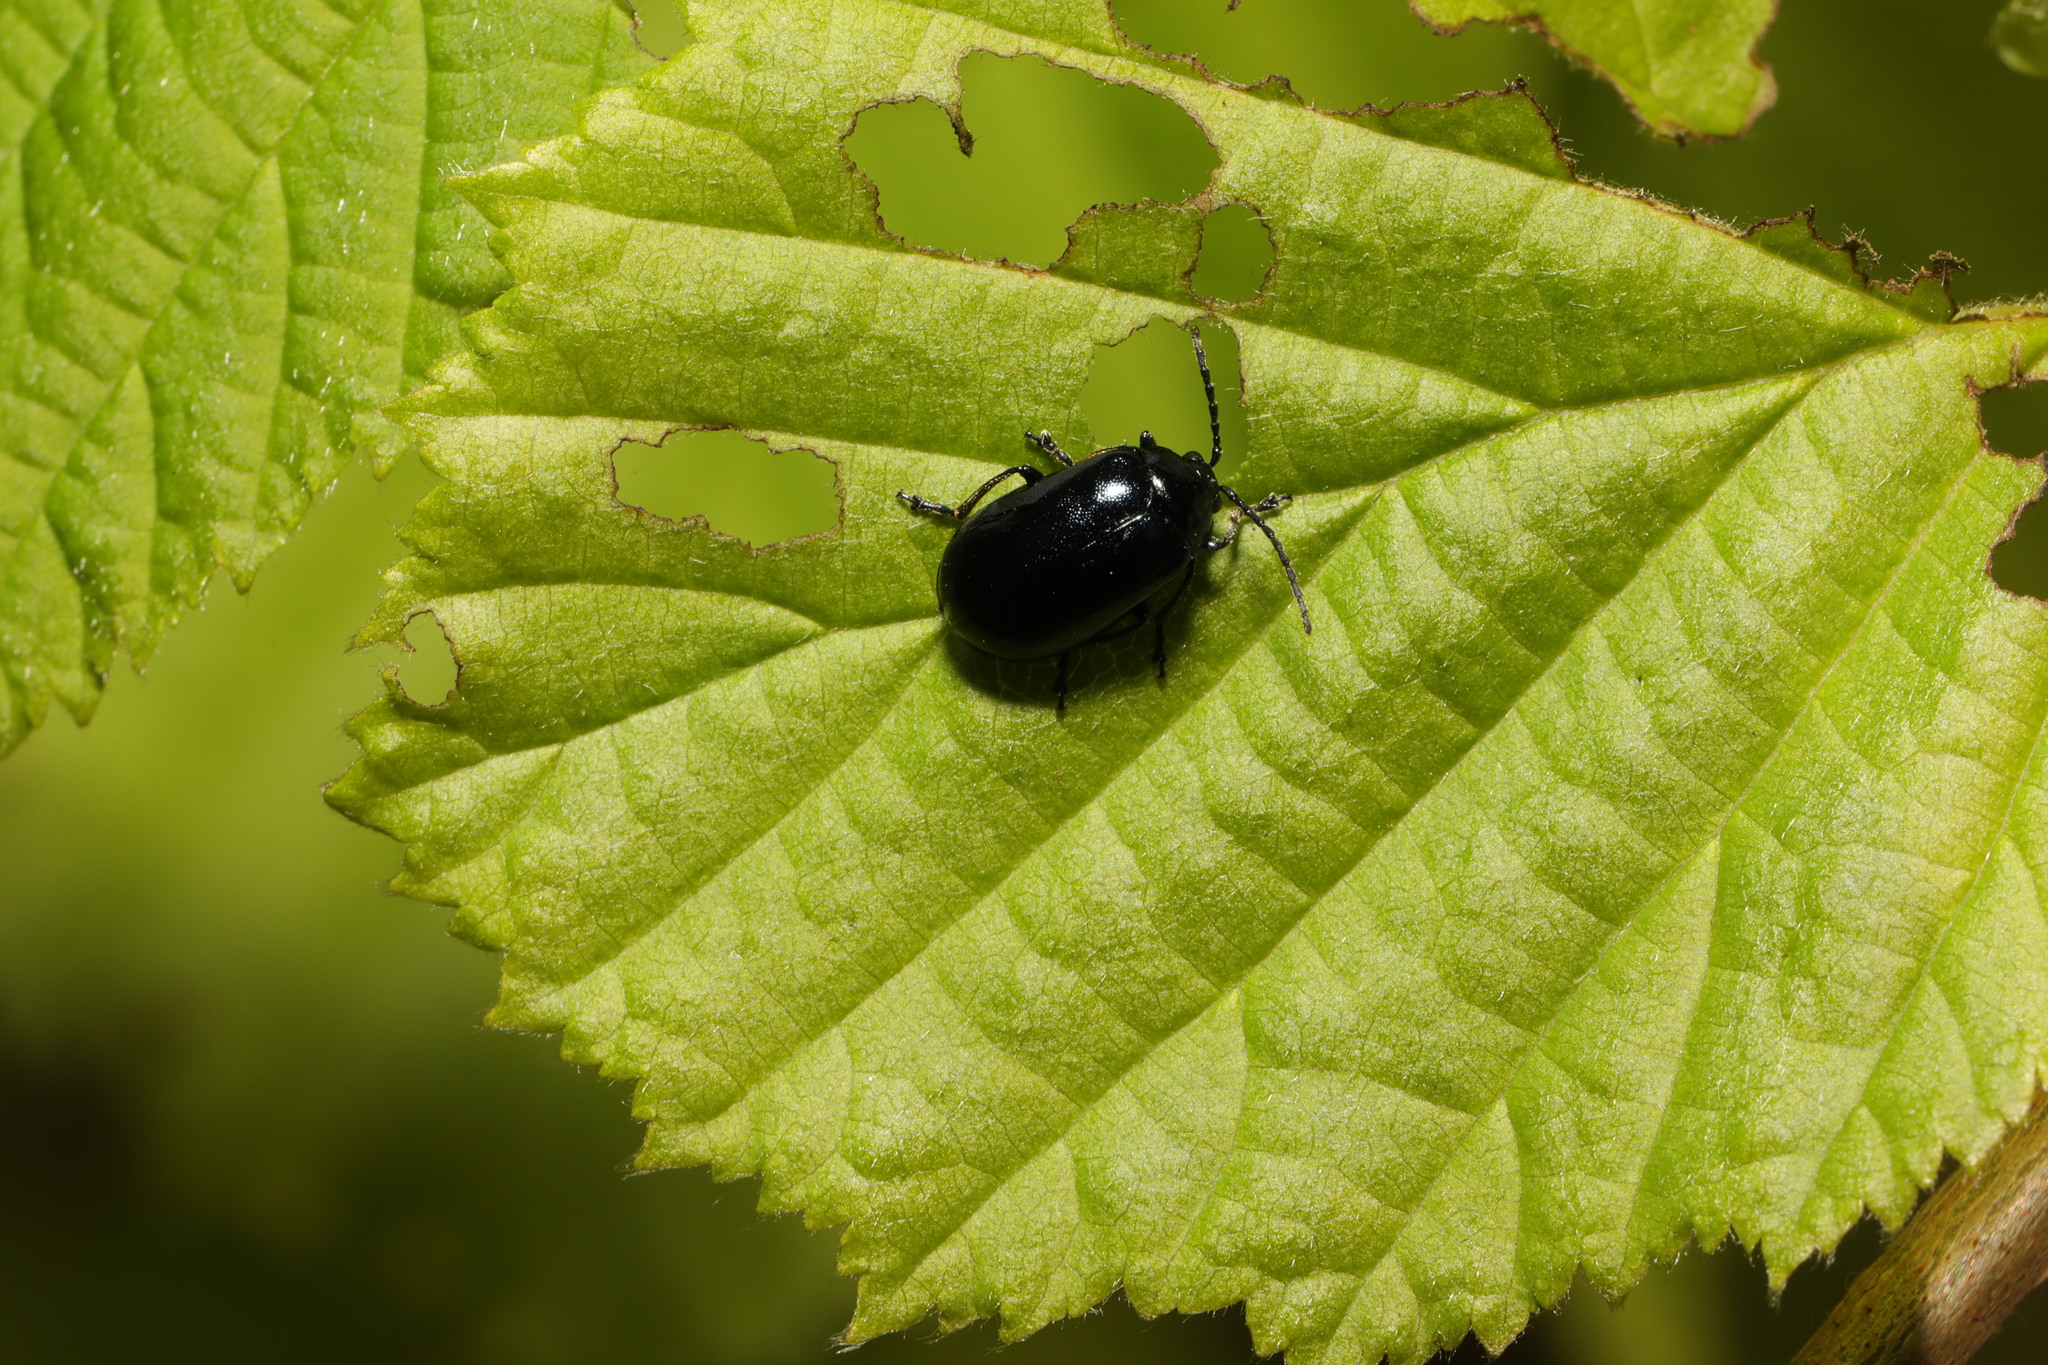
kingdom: Animalia
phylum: Arthropoda
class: Insecta
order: Coleoptera
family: Chrysomelidae
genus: Agelastica
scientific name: Agelastica alni
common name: Alder leaf beetle
